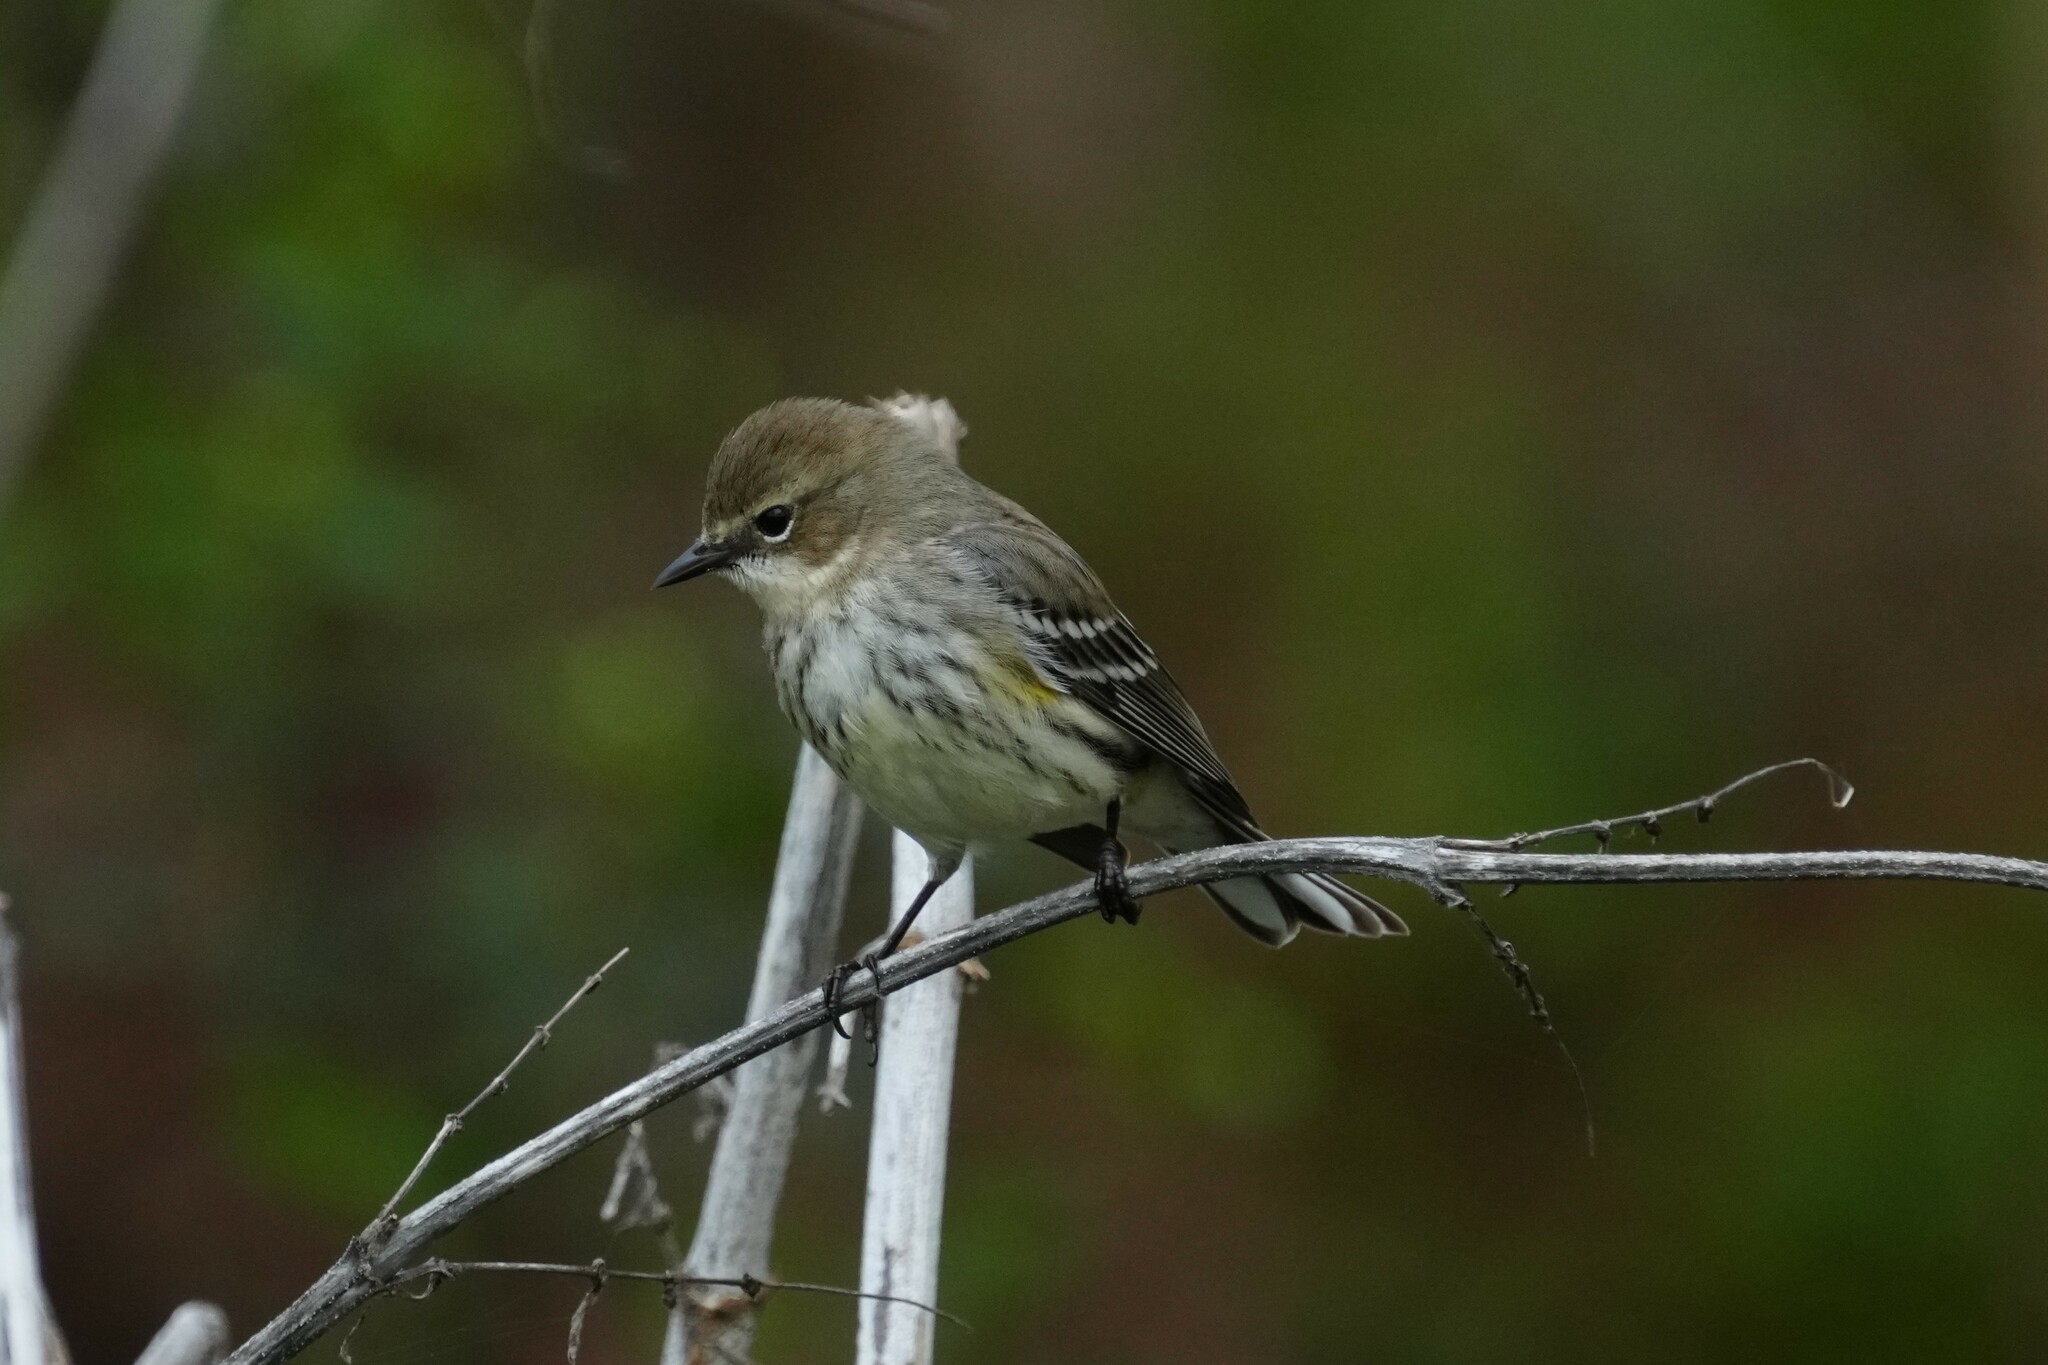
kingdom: Animalia
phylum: Chordata
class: Aves
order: Passeriformes
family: Parulidae
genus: Setophaga
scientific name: Setophaga coronata
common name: Myrtle warbler
